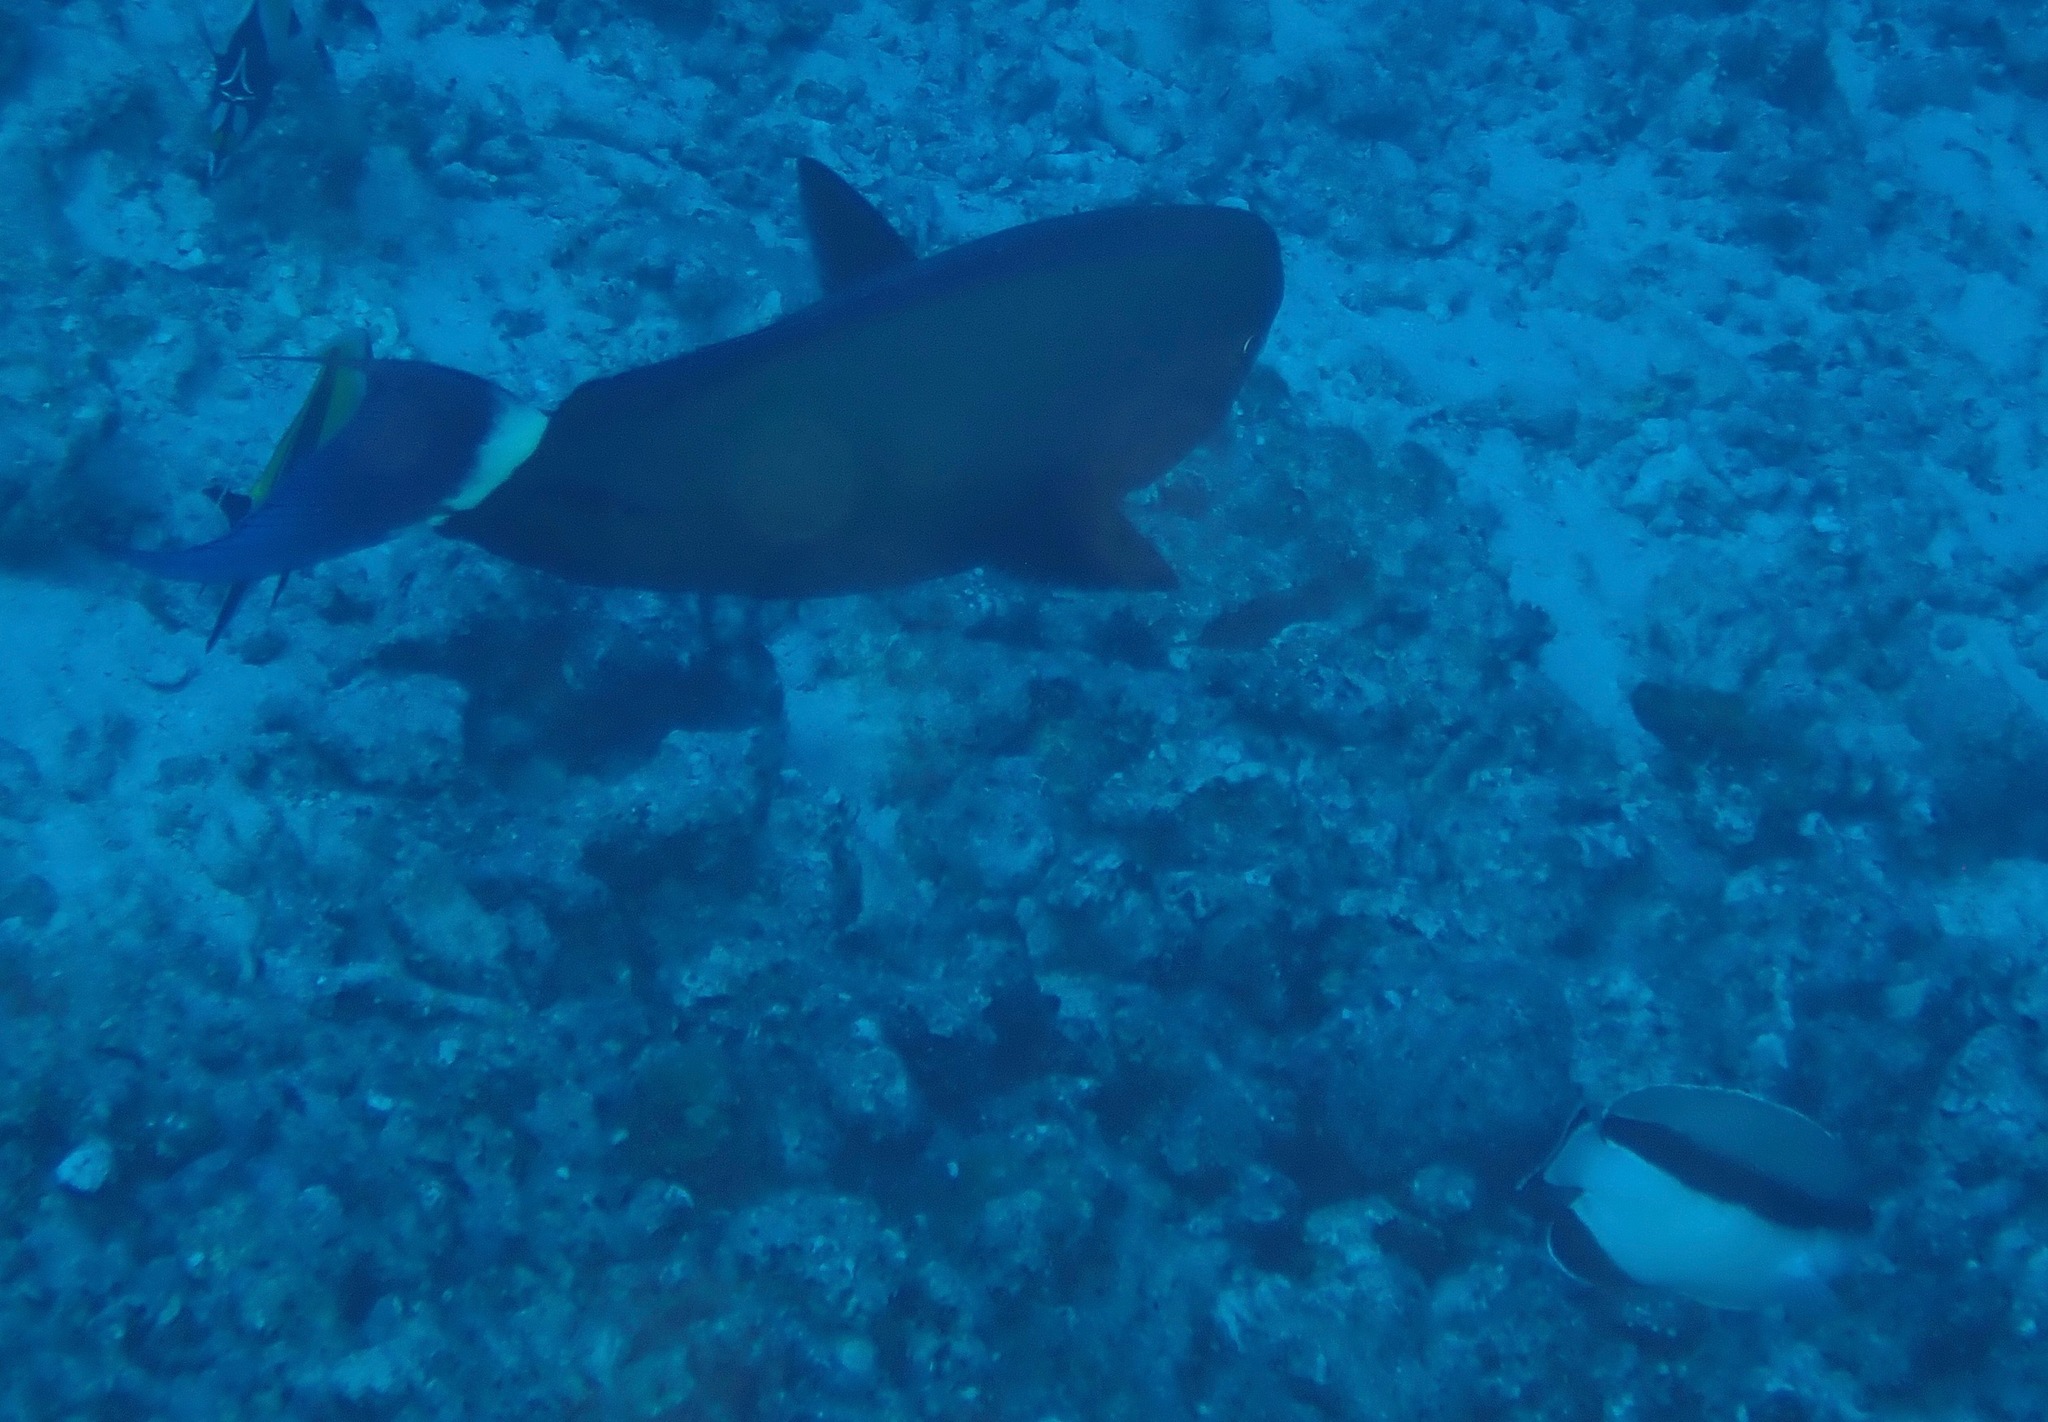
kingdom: Animalia
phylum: Chordata
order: Perciformes
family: Pomacanthidae
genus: Apolemichthys
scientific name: Apolemichthys arcuatus
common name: Bandit angelfish
